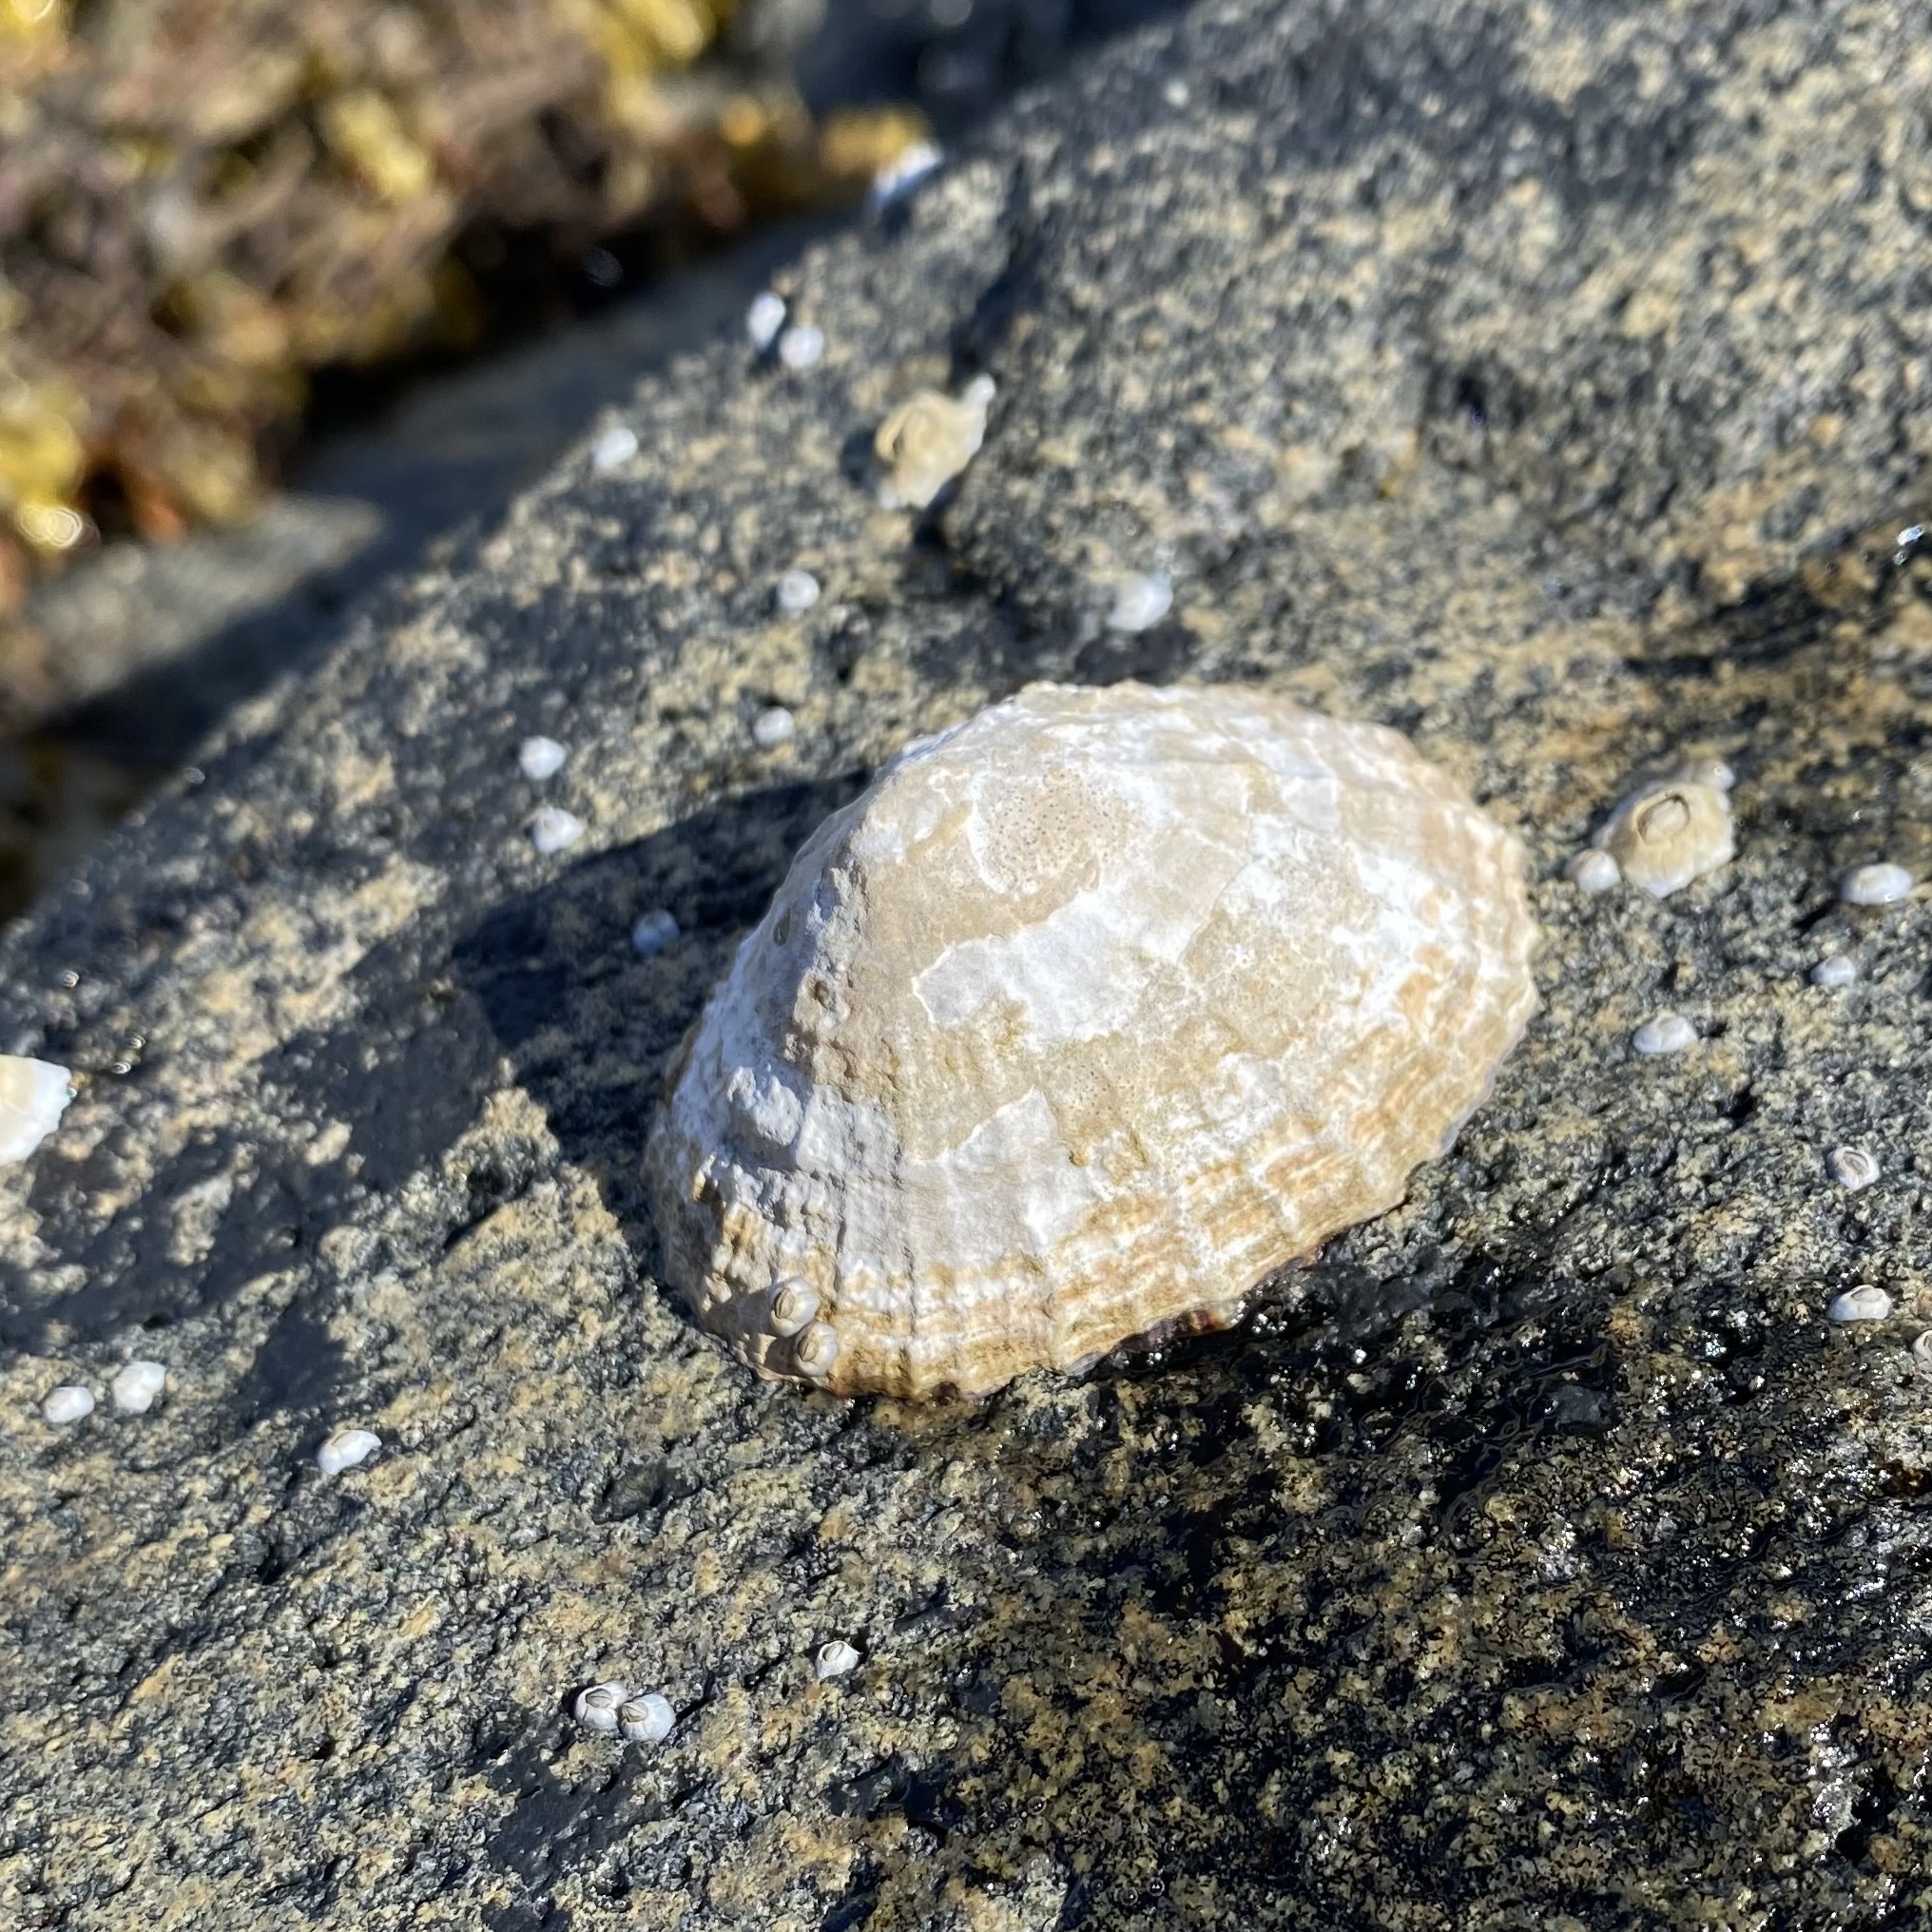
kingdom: Animalia
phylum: Mollusca
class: Gastropoda
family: Patellidae
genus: Patella
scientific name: Patella vulgata
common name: Common limpet
